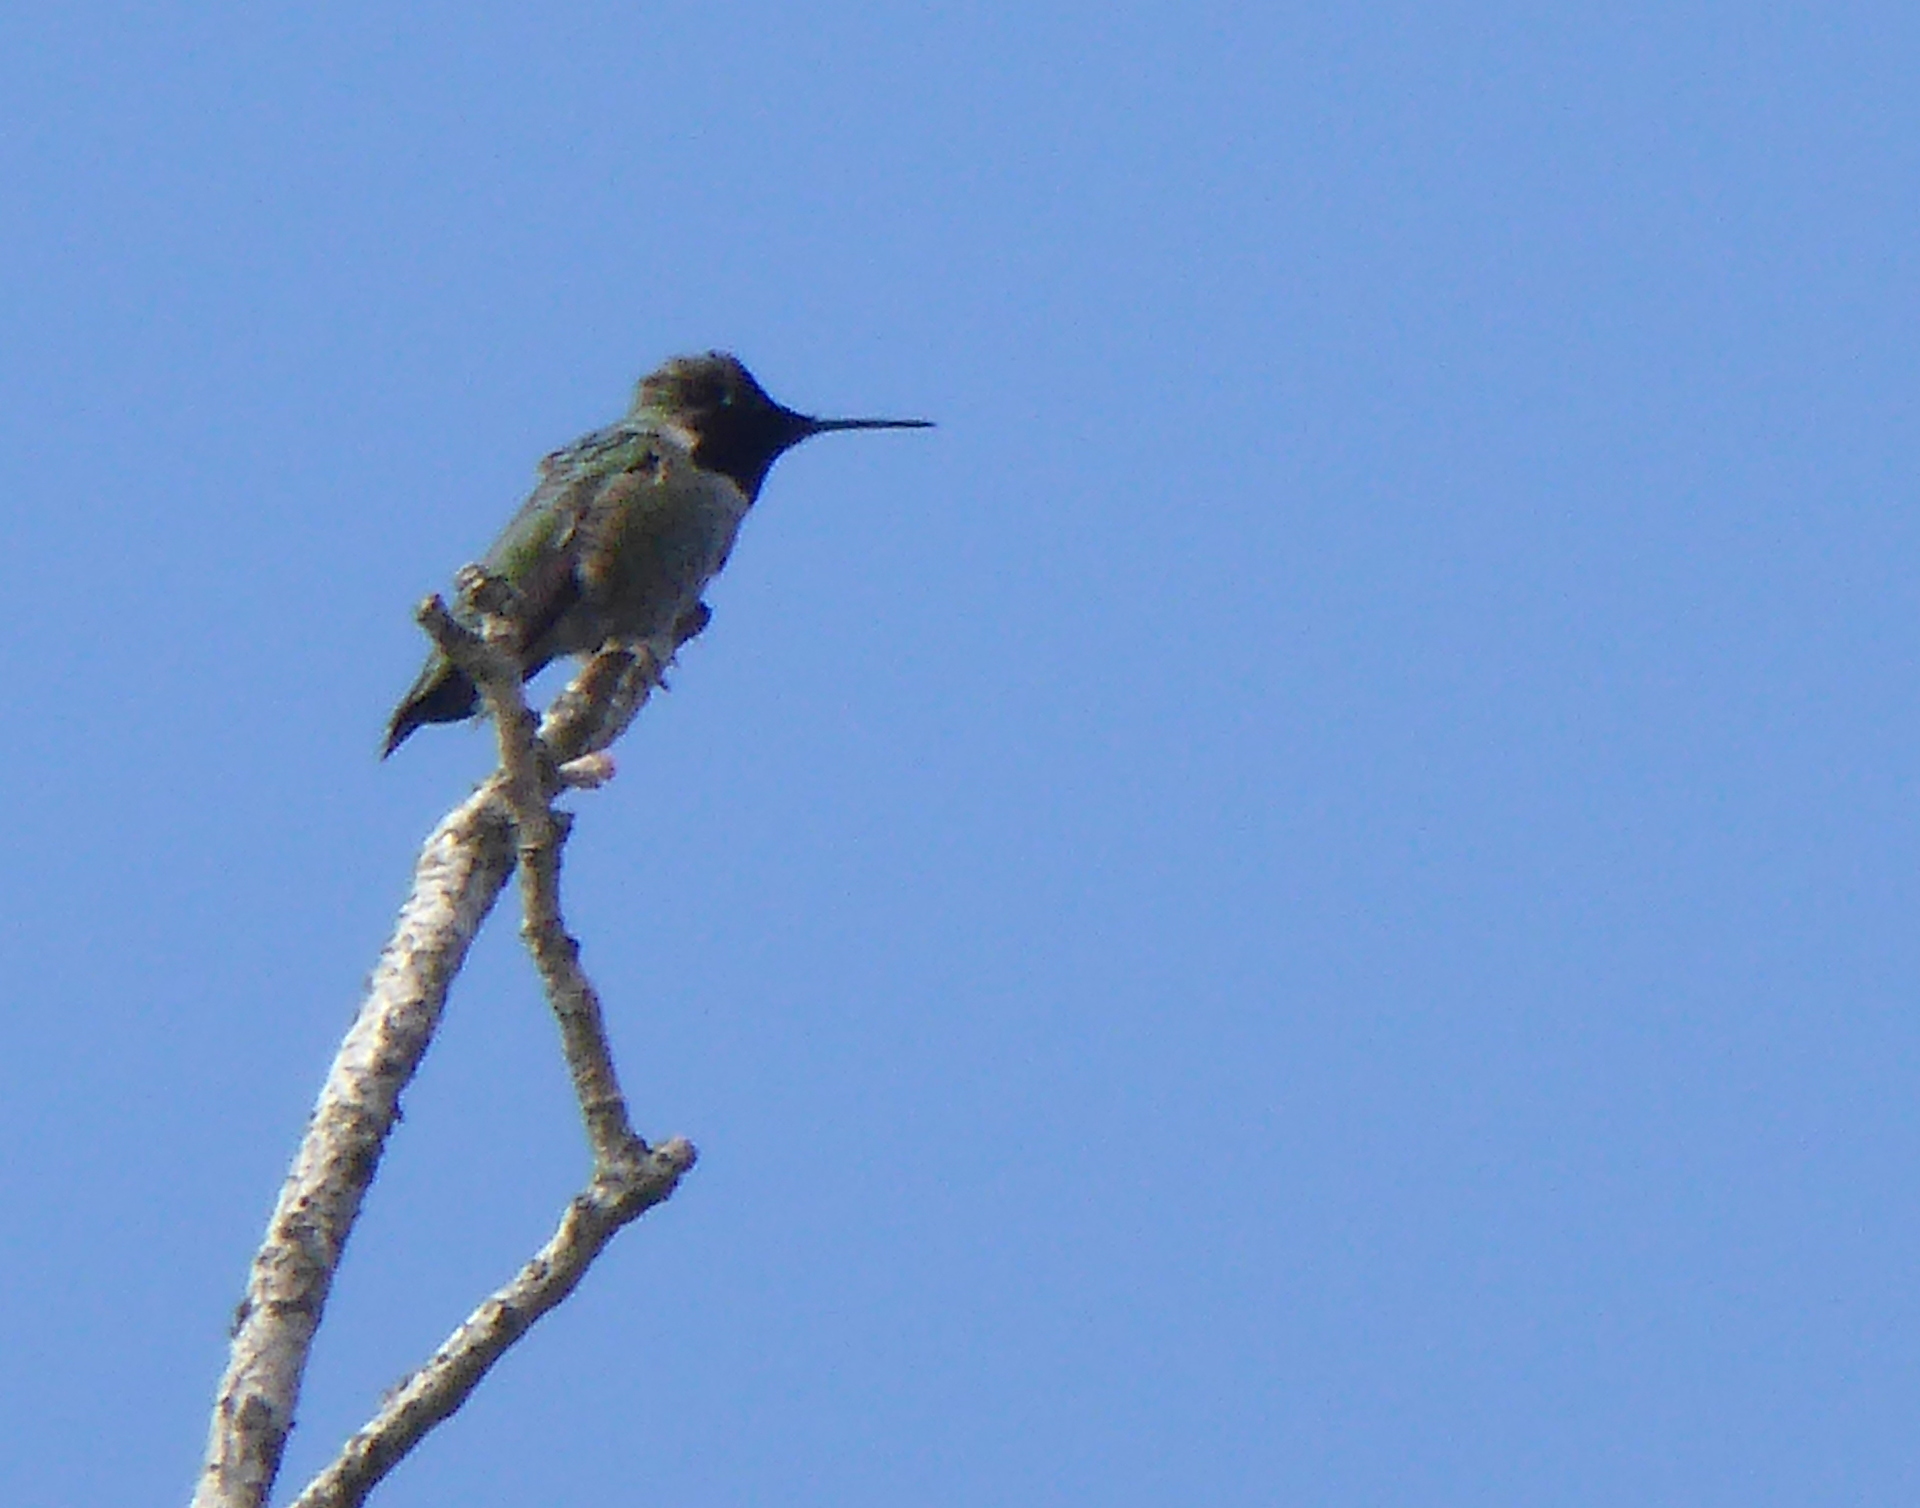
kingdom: Animalia
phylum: Chordata
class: Aves
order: Apodiformes
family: Trochilidae
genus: Calypte
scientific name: Calypte anna
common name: Anna's hummingbird
